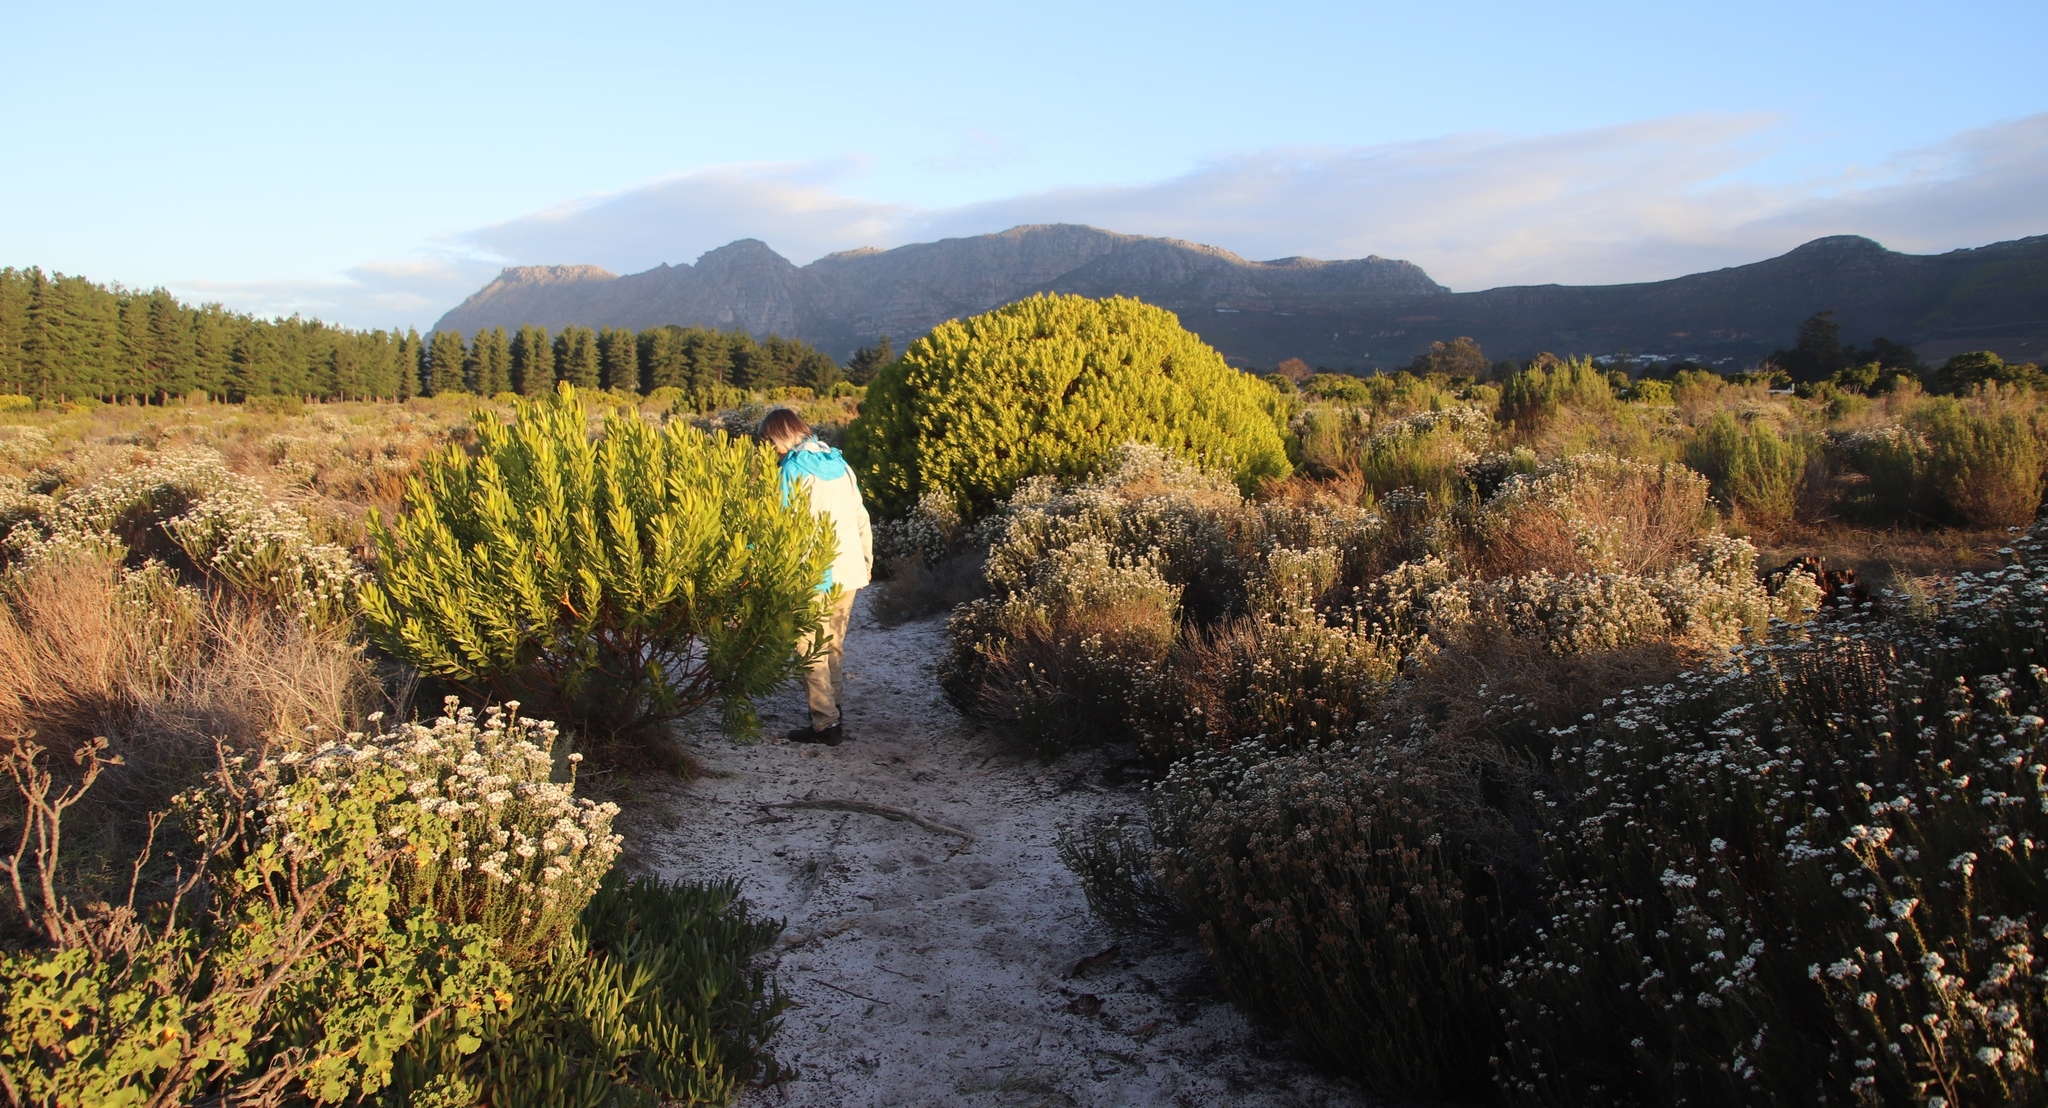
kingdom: Plantae
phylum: Tracheophyta
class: Magnoliopsida
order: Proteales
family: Proteaceae
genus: Leucadendron
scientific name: Leucadendron laureolum
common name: Golden sunshinebush
